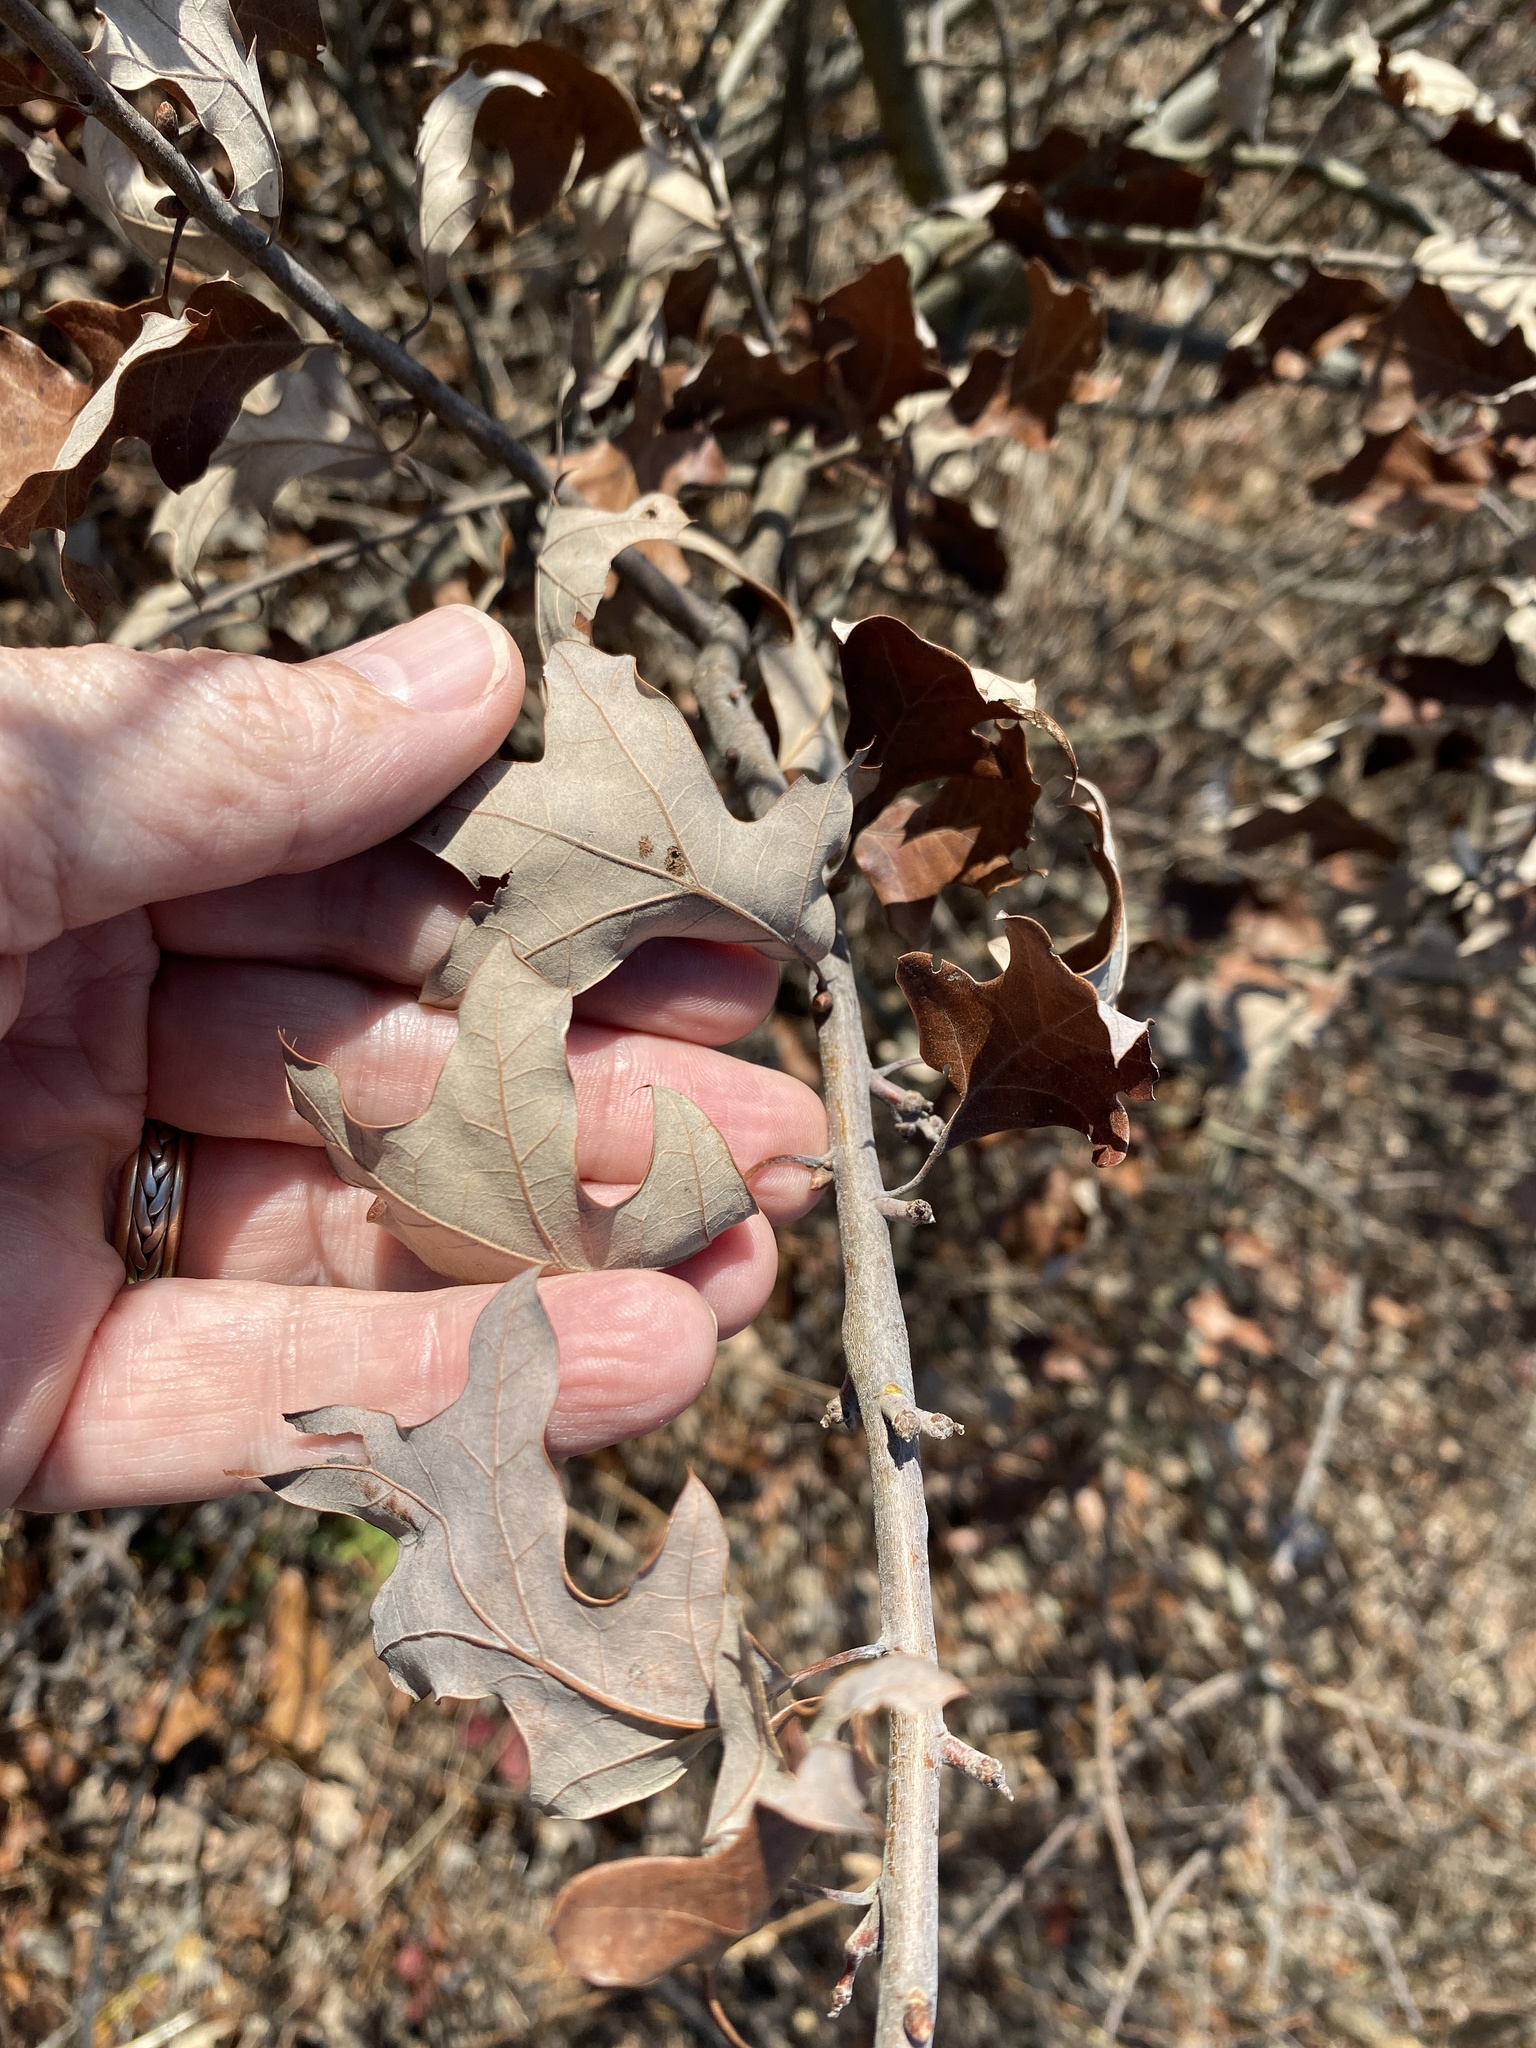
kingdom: Plantae
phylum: Tracheophyta
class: Magnoliopsida
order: Fagales
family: Fagaceae
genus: Quercus
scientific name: Quercus ilicifolia
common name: Bear oak
